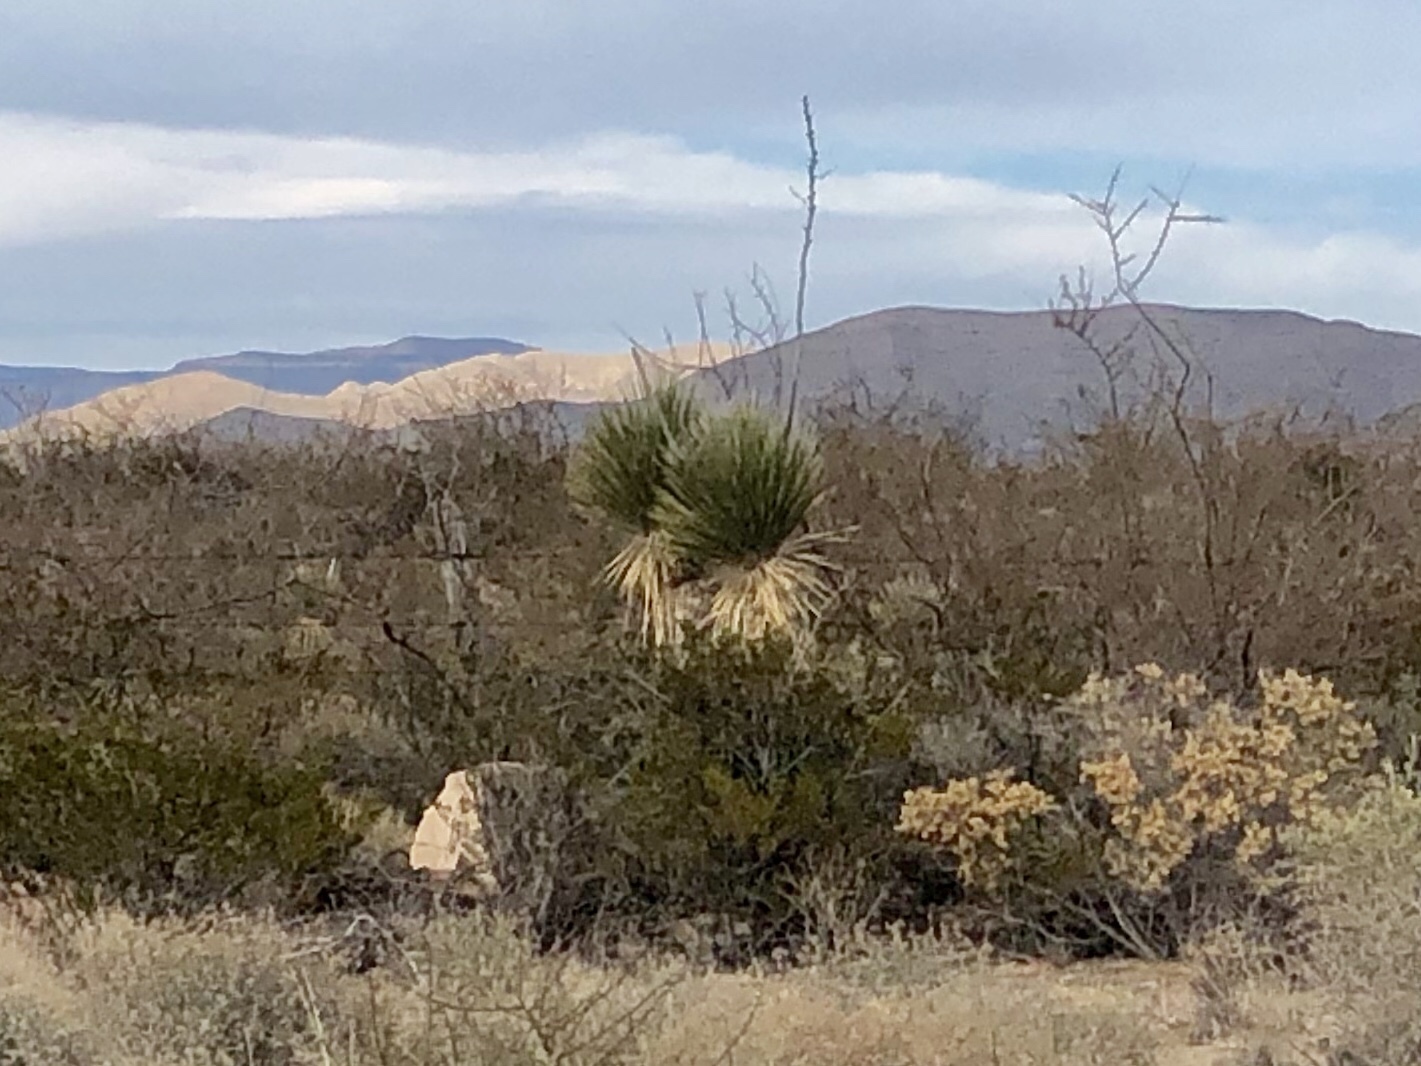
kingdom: Plantae
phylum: Tracheophyta
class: Liliopsida
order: Asparagales
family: Asparagaceae
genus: Yucca
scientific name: Yucca elata
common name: Palmella
